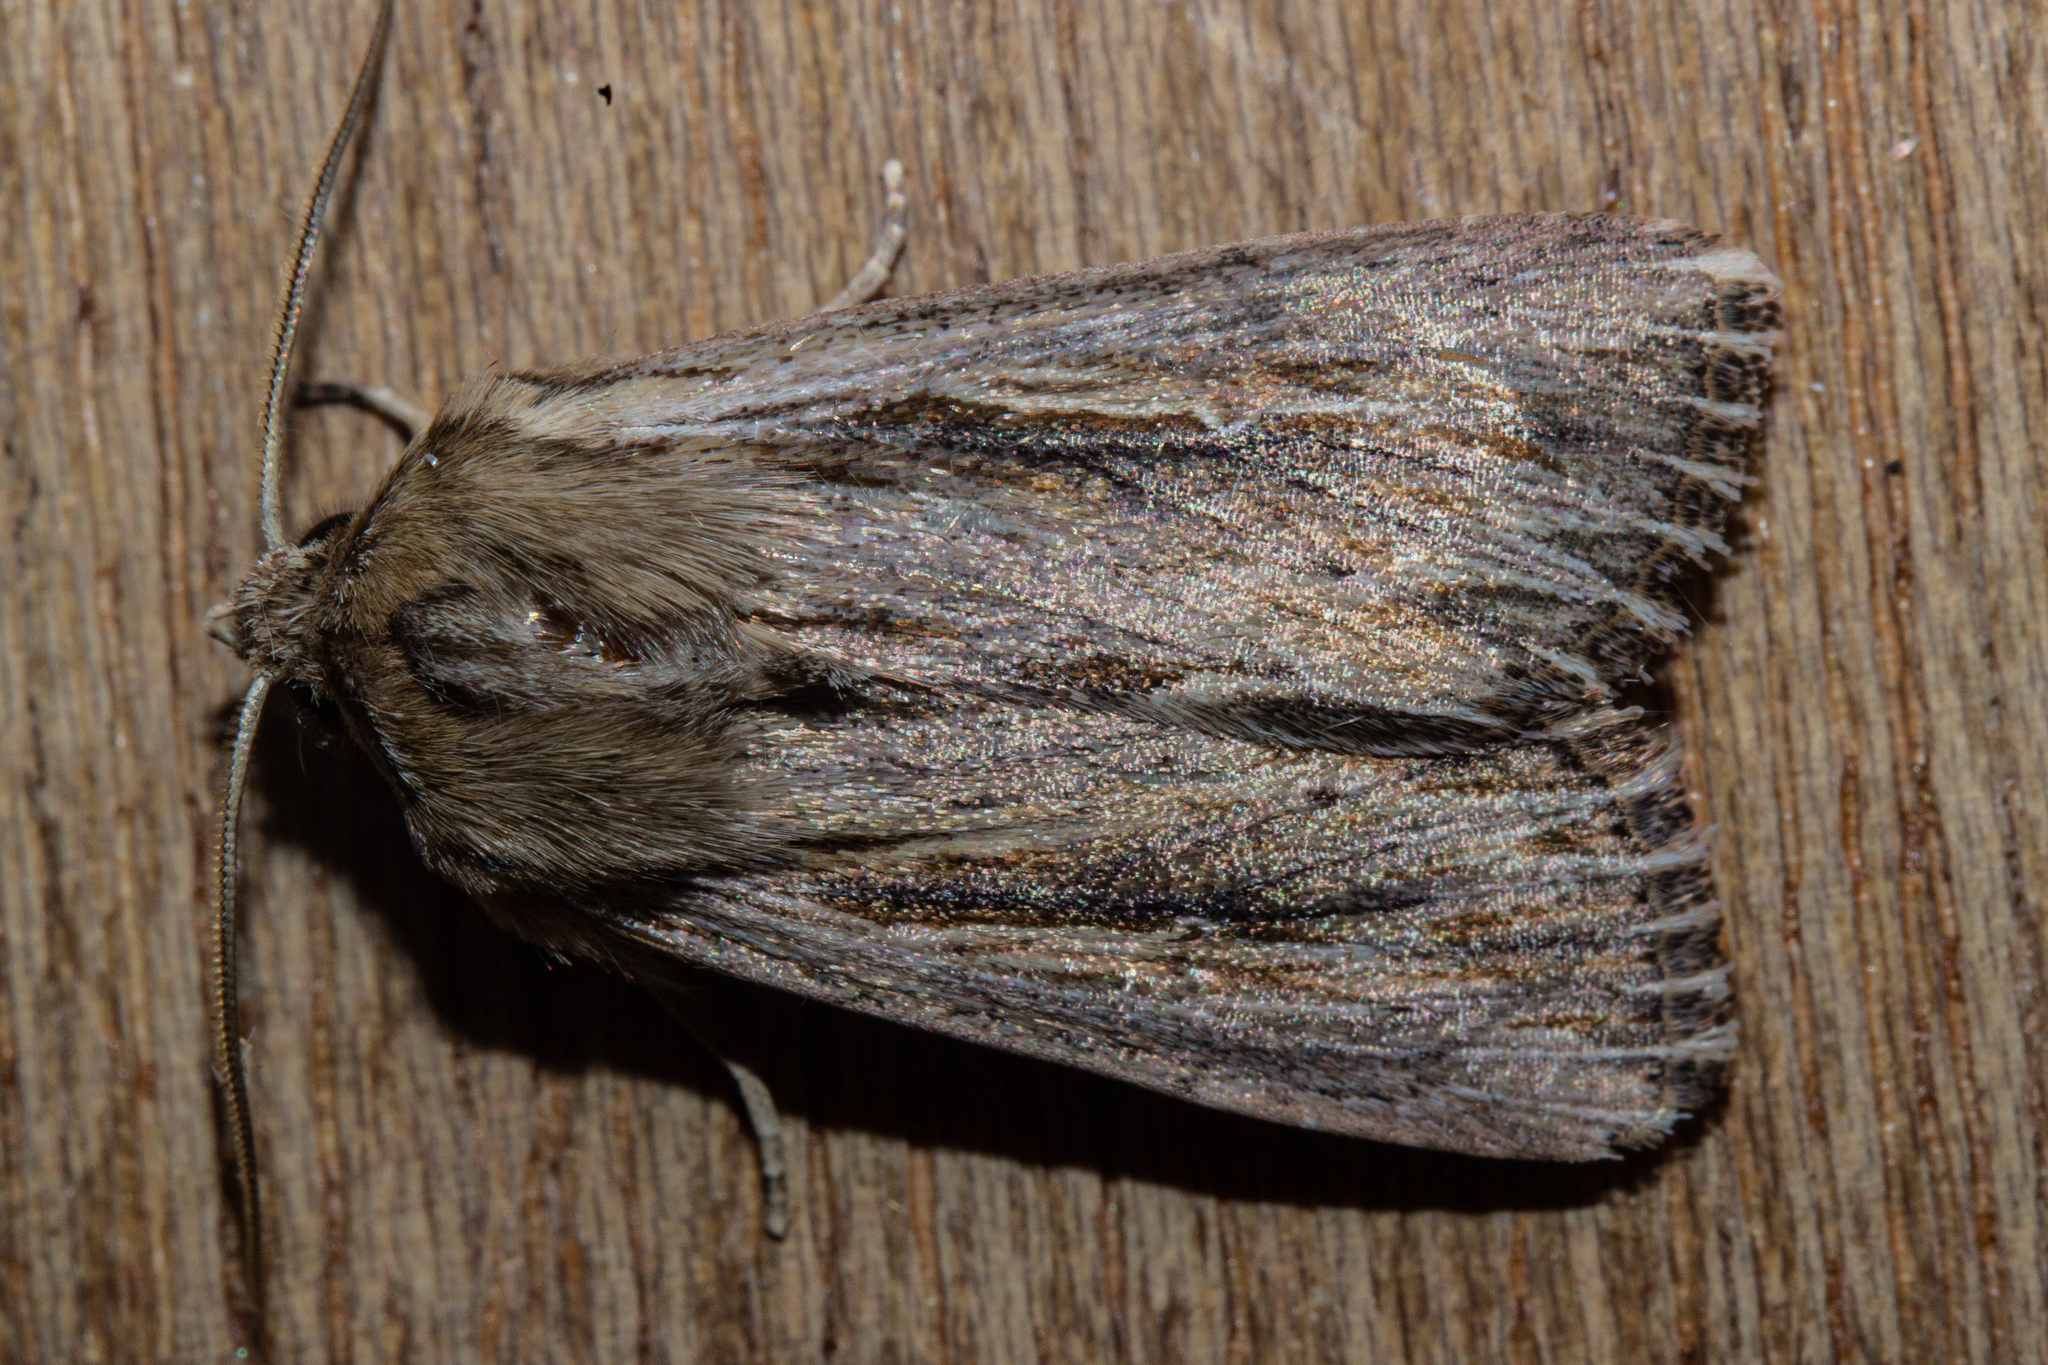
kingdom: Animalia
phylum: Arthropoda
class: Insecta
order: Lepidoptera
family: Noctuidae
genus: Persectania
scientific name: Persectania aversa
